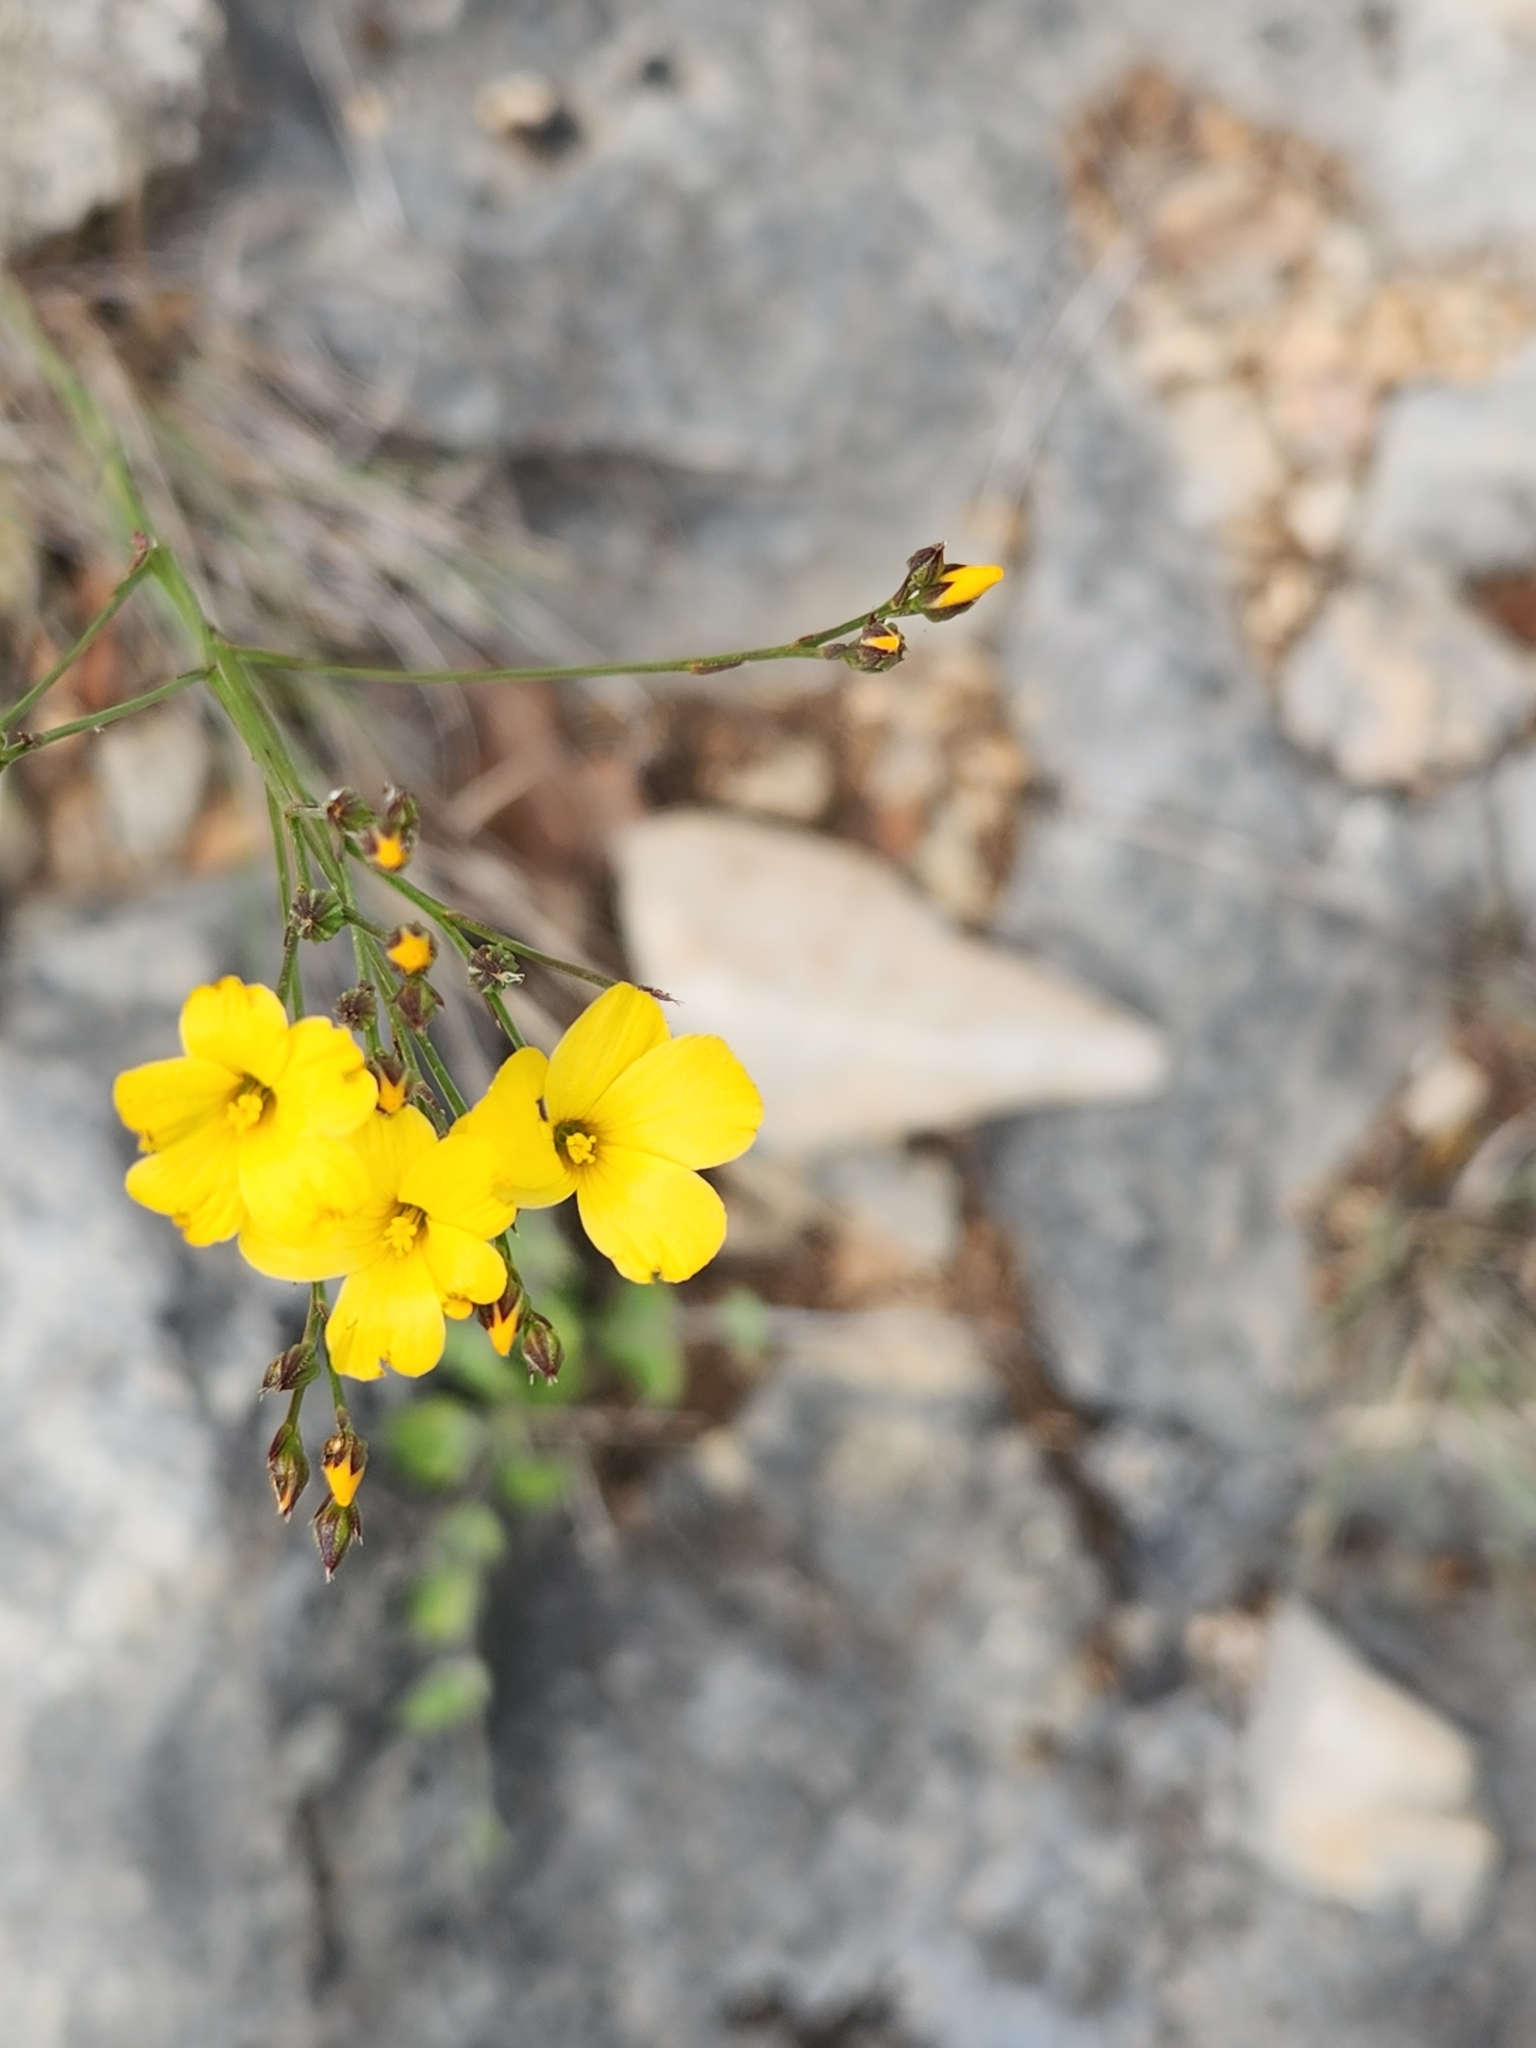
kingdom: Plantae
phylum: Tracheophyta
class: Magnoliopsida
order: Malpighiales
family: Linaceae
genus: Linum
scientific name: Linum rupestre
